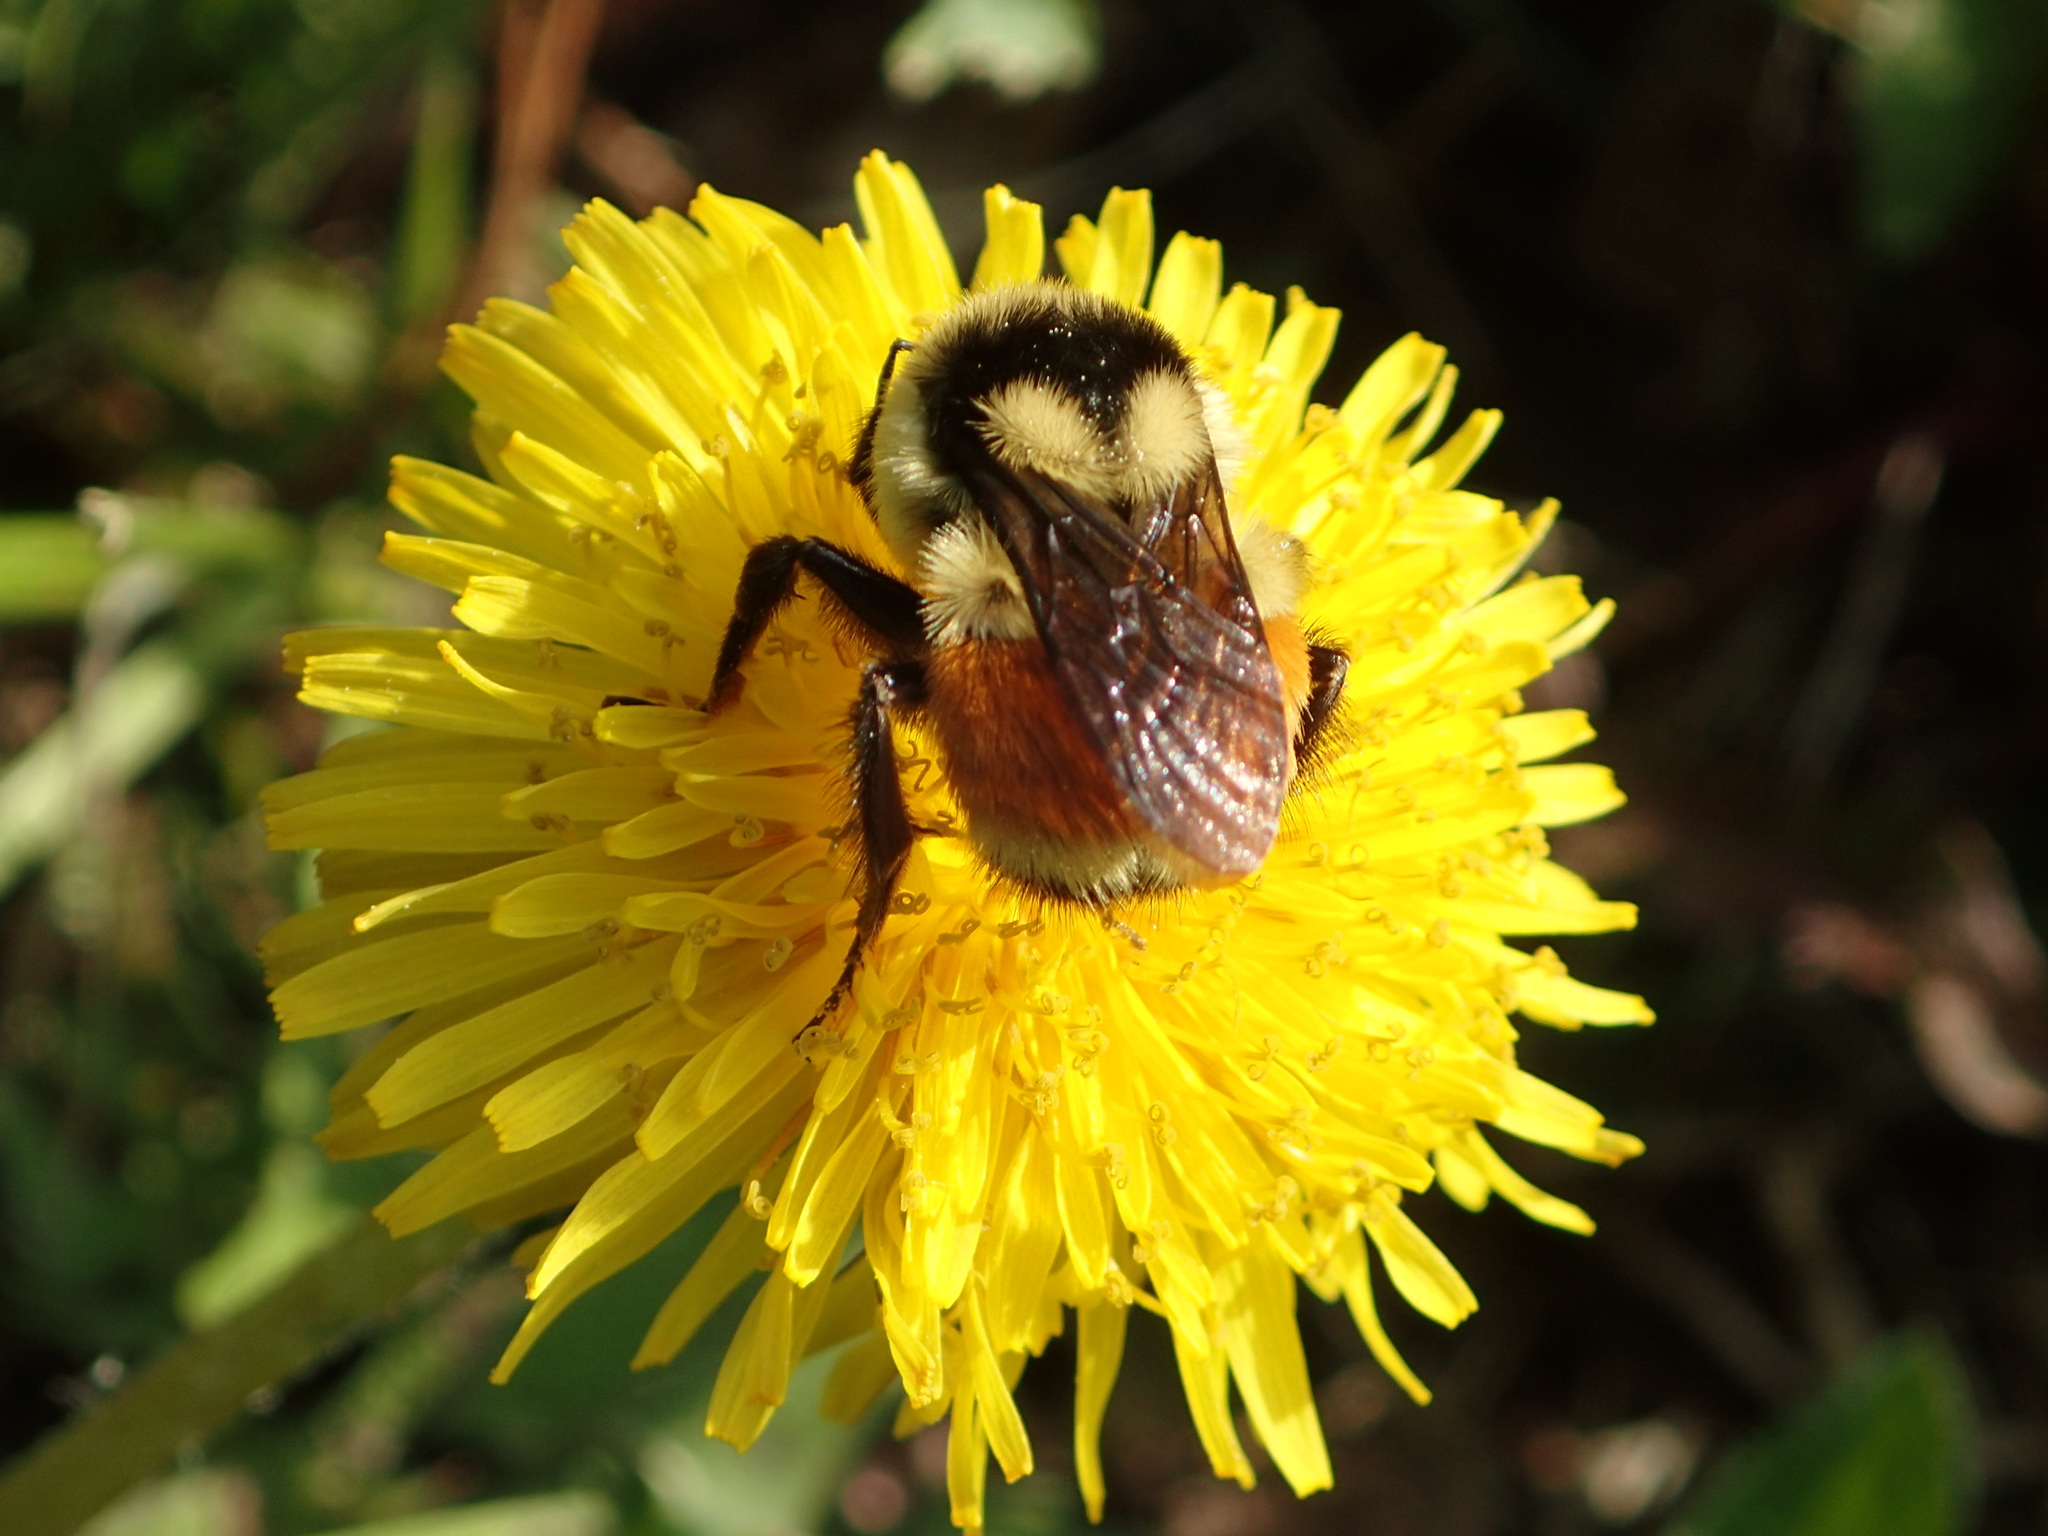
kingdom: Animalia
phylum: Arthropoda
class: Insecta
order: Hymenoptera
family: Apidae
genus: Bombus
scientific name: Bombus ternarius
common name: Tri-colored bumble bee
